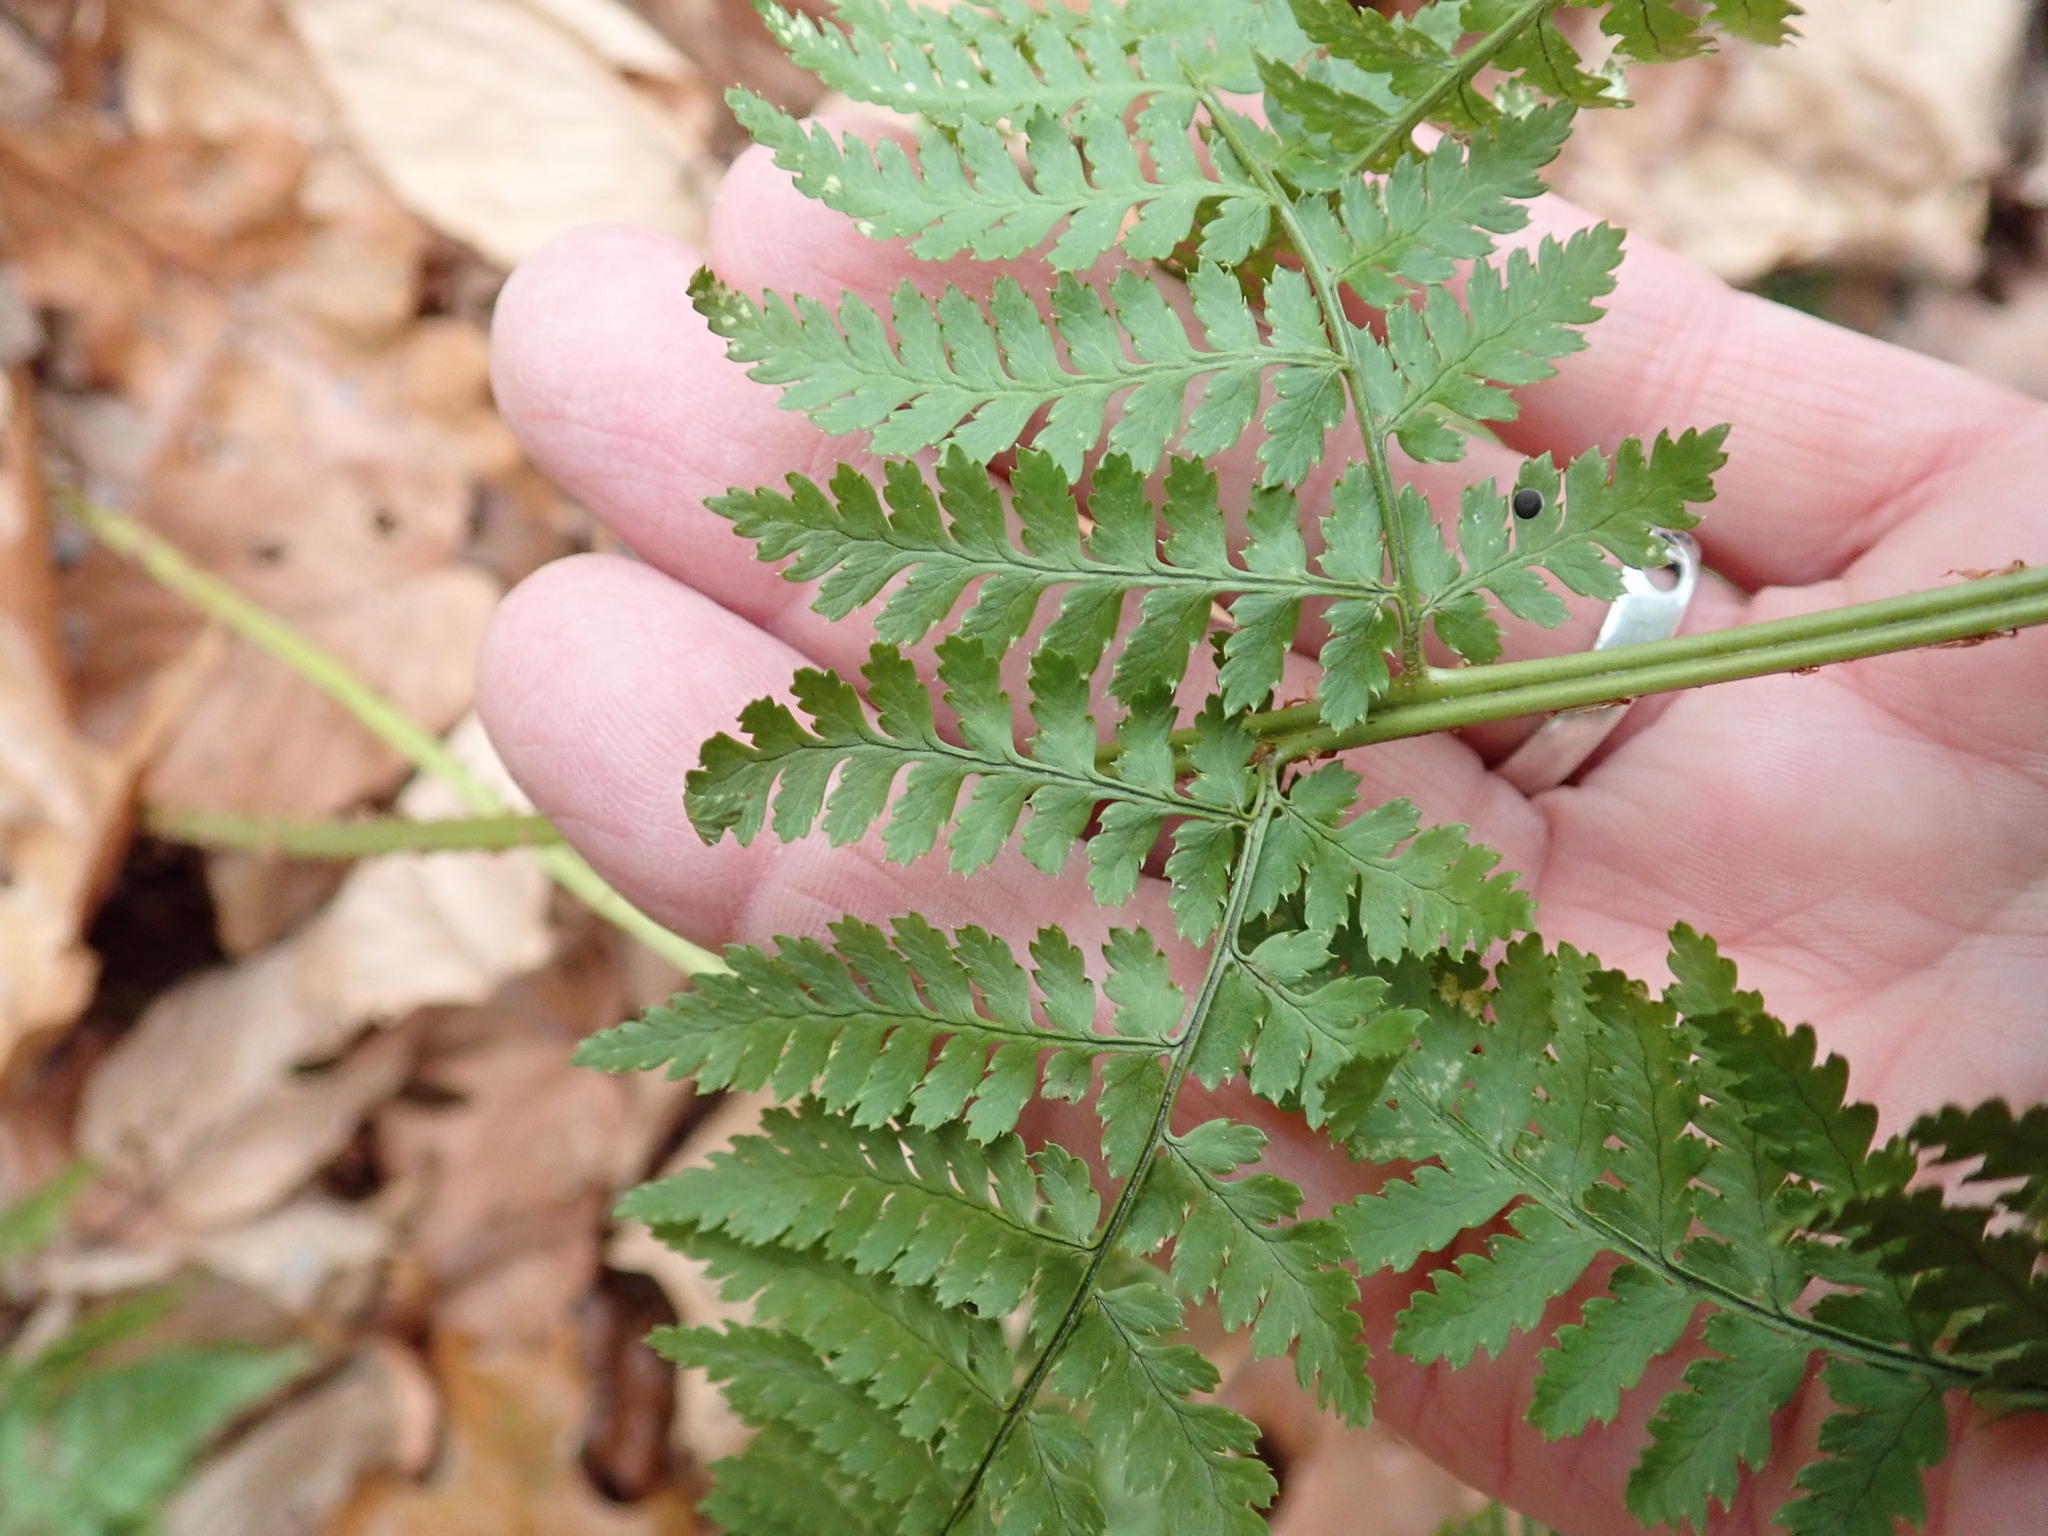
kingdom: Plantae
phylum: Tracheophyta
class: Polypodiopsida
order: Polypodiales
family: Dryopteridaceae
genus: Dryopteris
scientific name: Dryopteris intermedia
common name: Evergreen wood fern
